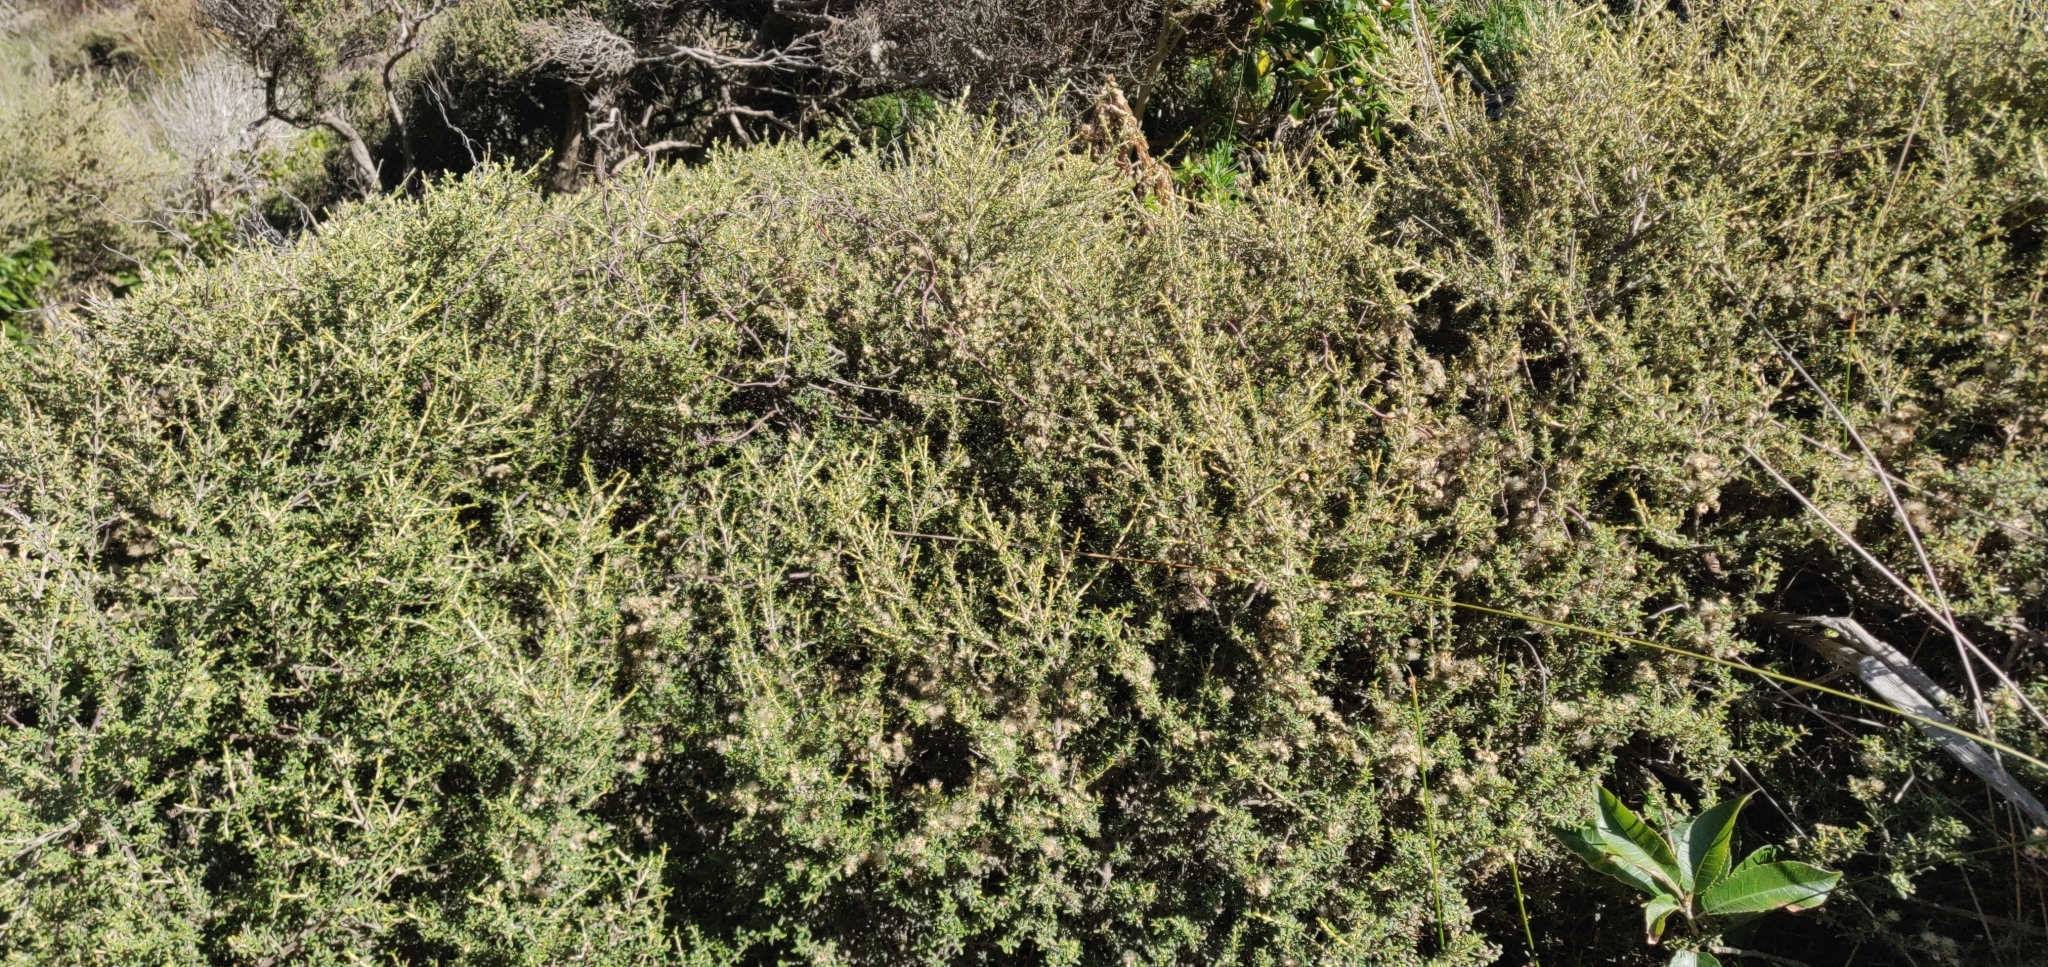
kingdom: Plantae
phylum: Tracheophyta
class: Magnoliopsida
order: Asterales
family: Asteraceae
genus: Olearia
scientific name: Olearia solandri
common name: Coastal daisybush
